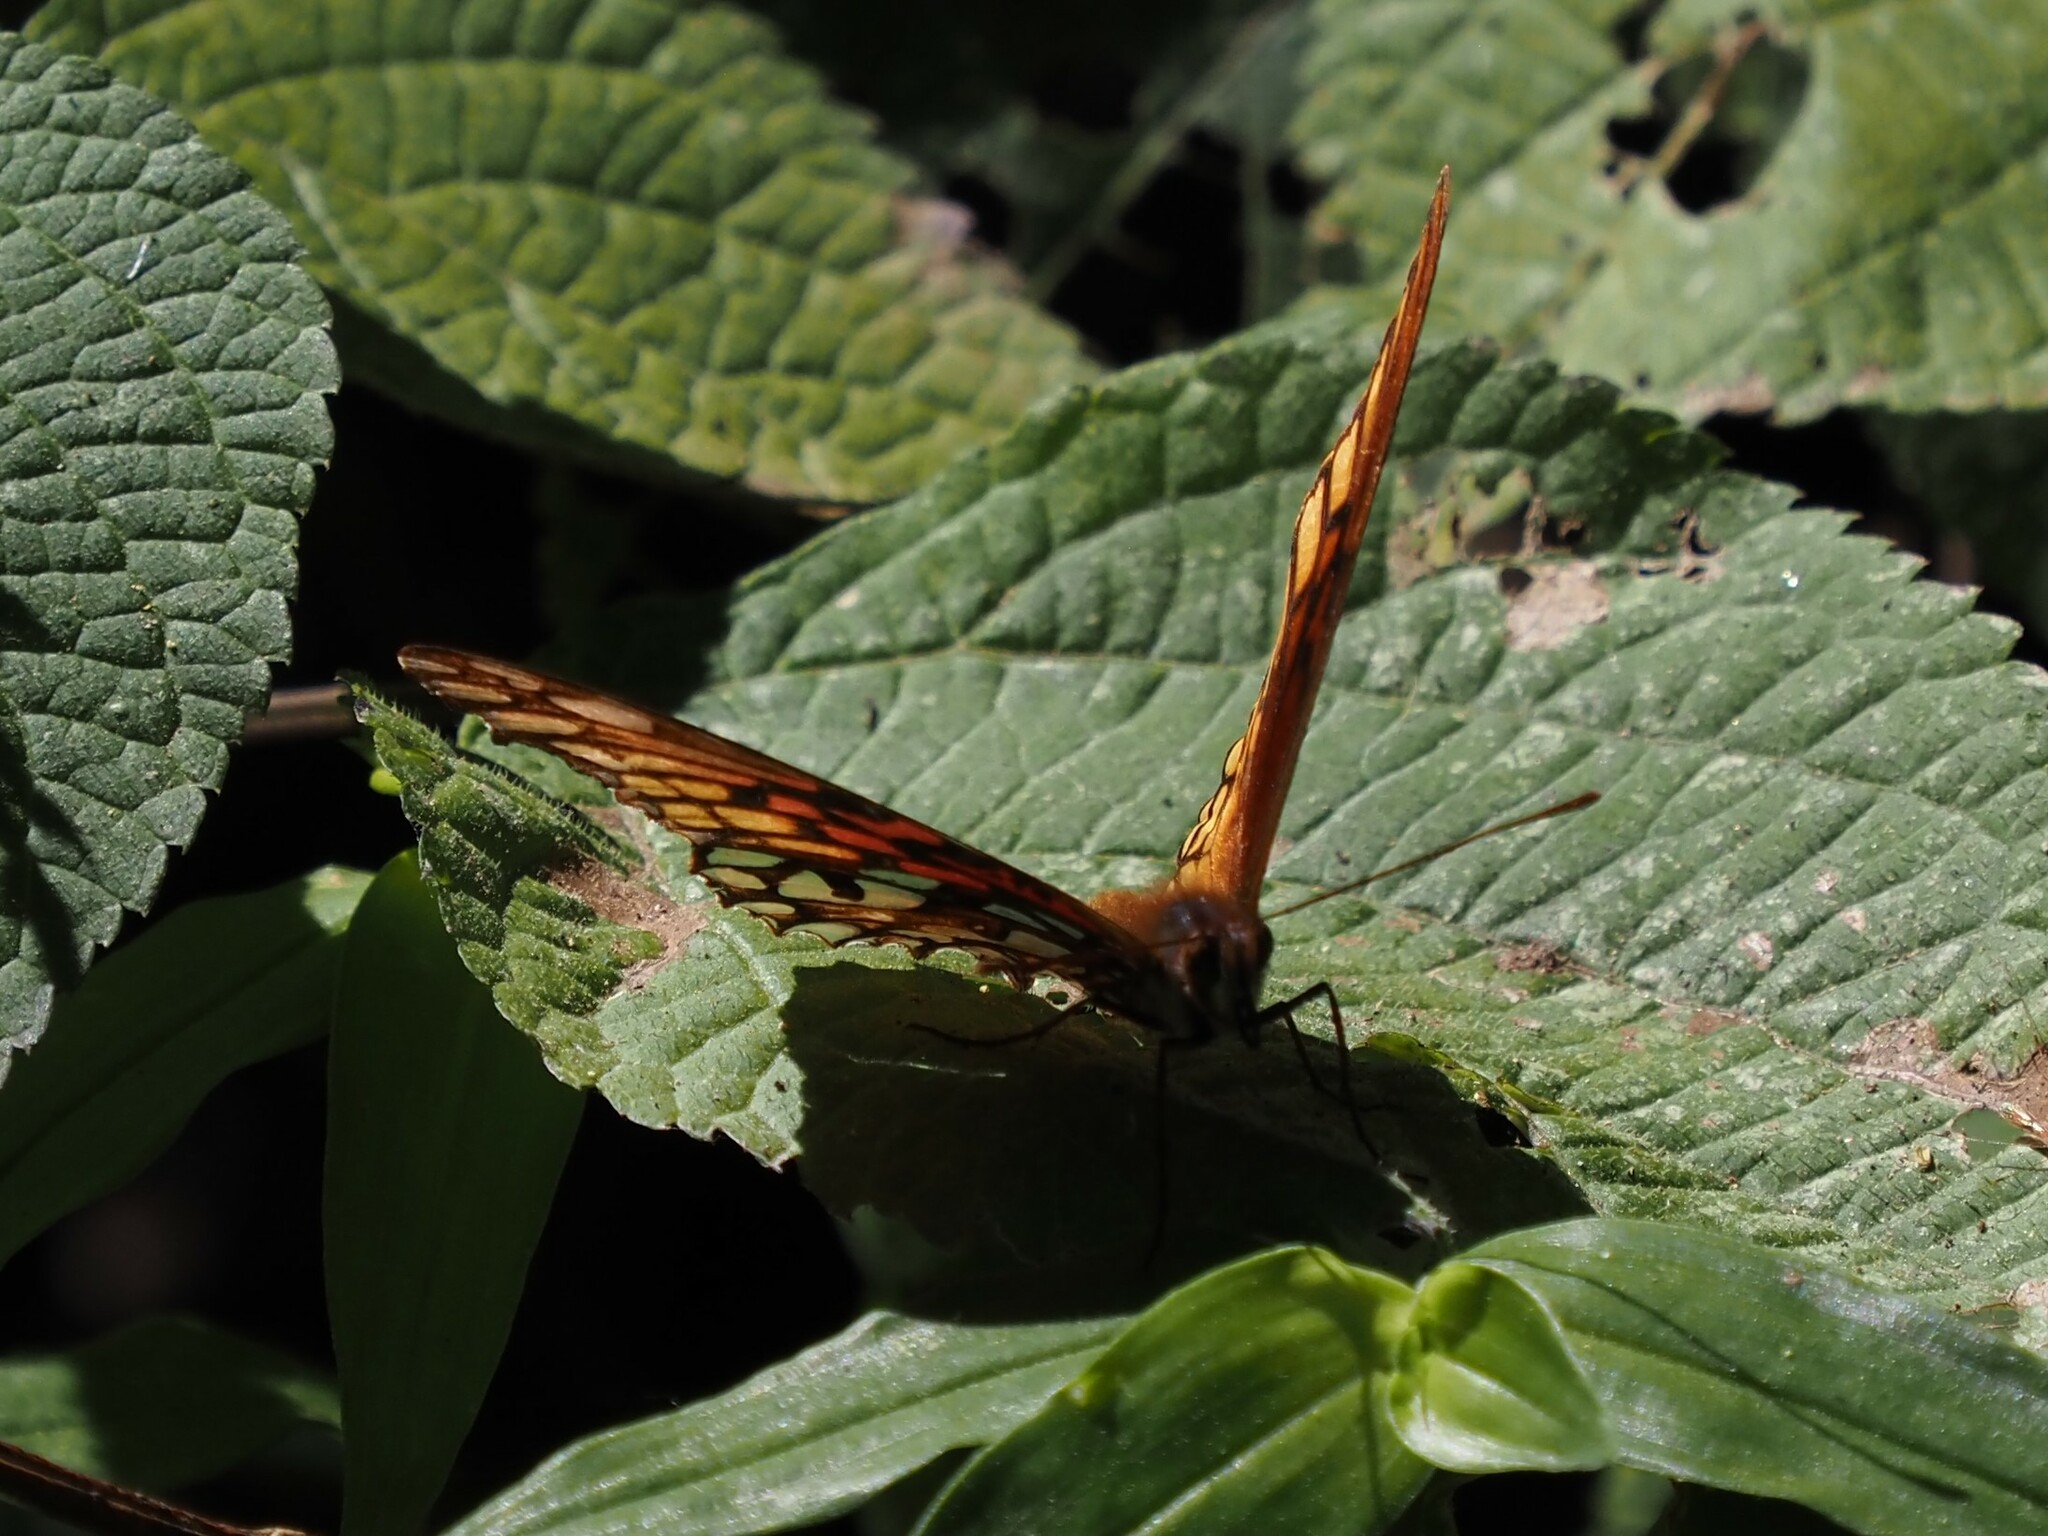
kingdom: Animalia
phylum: Arthropoda
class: Insecta
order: Lepidoptera
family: Nymphalidae
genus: Dione
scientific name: Dione moneta
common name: Mexican silverspot
